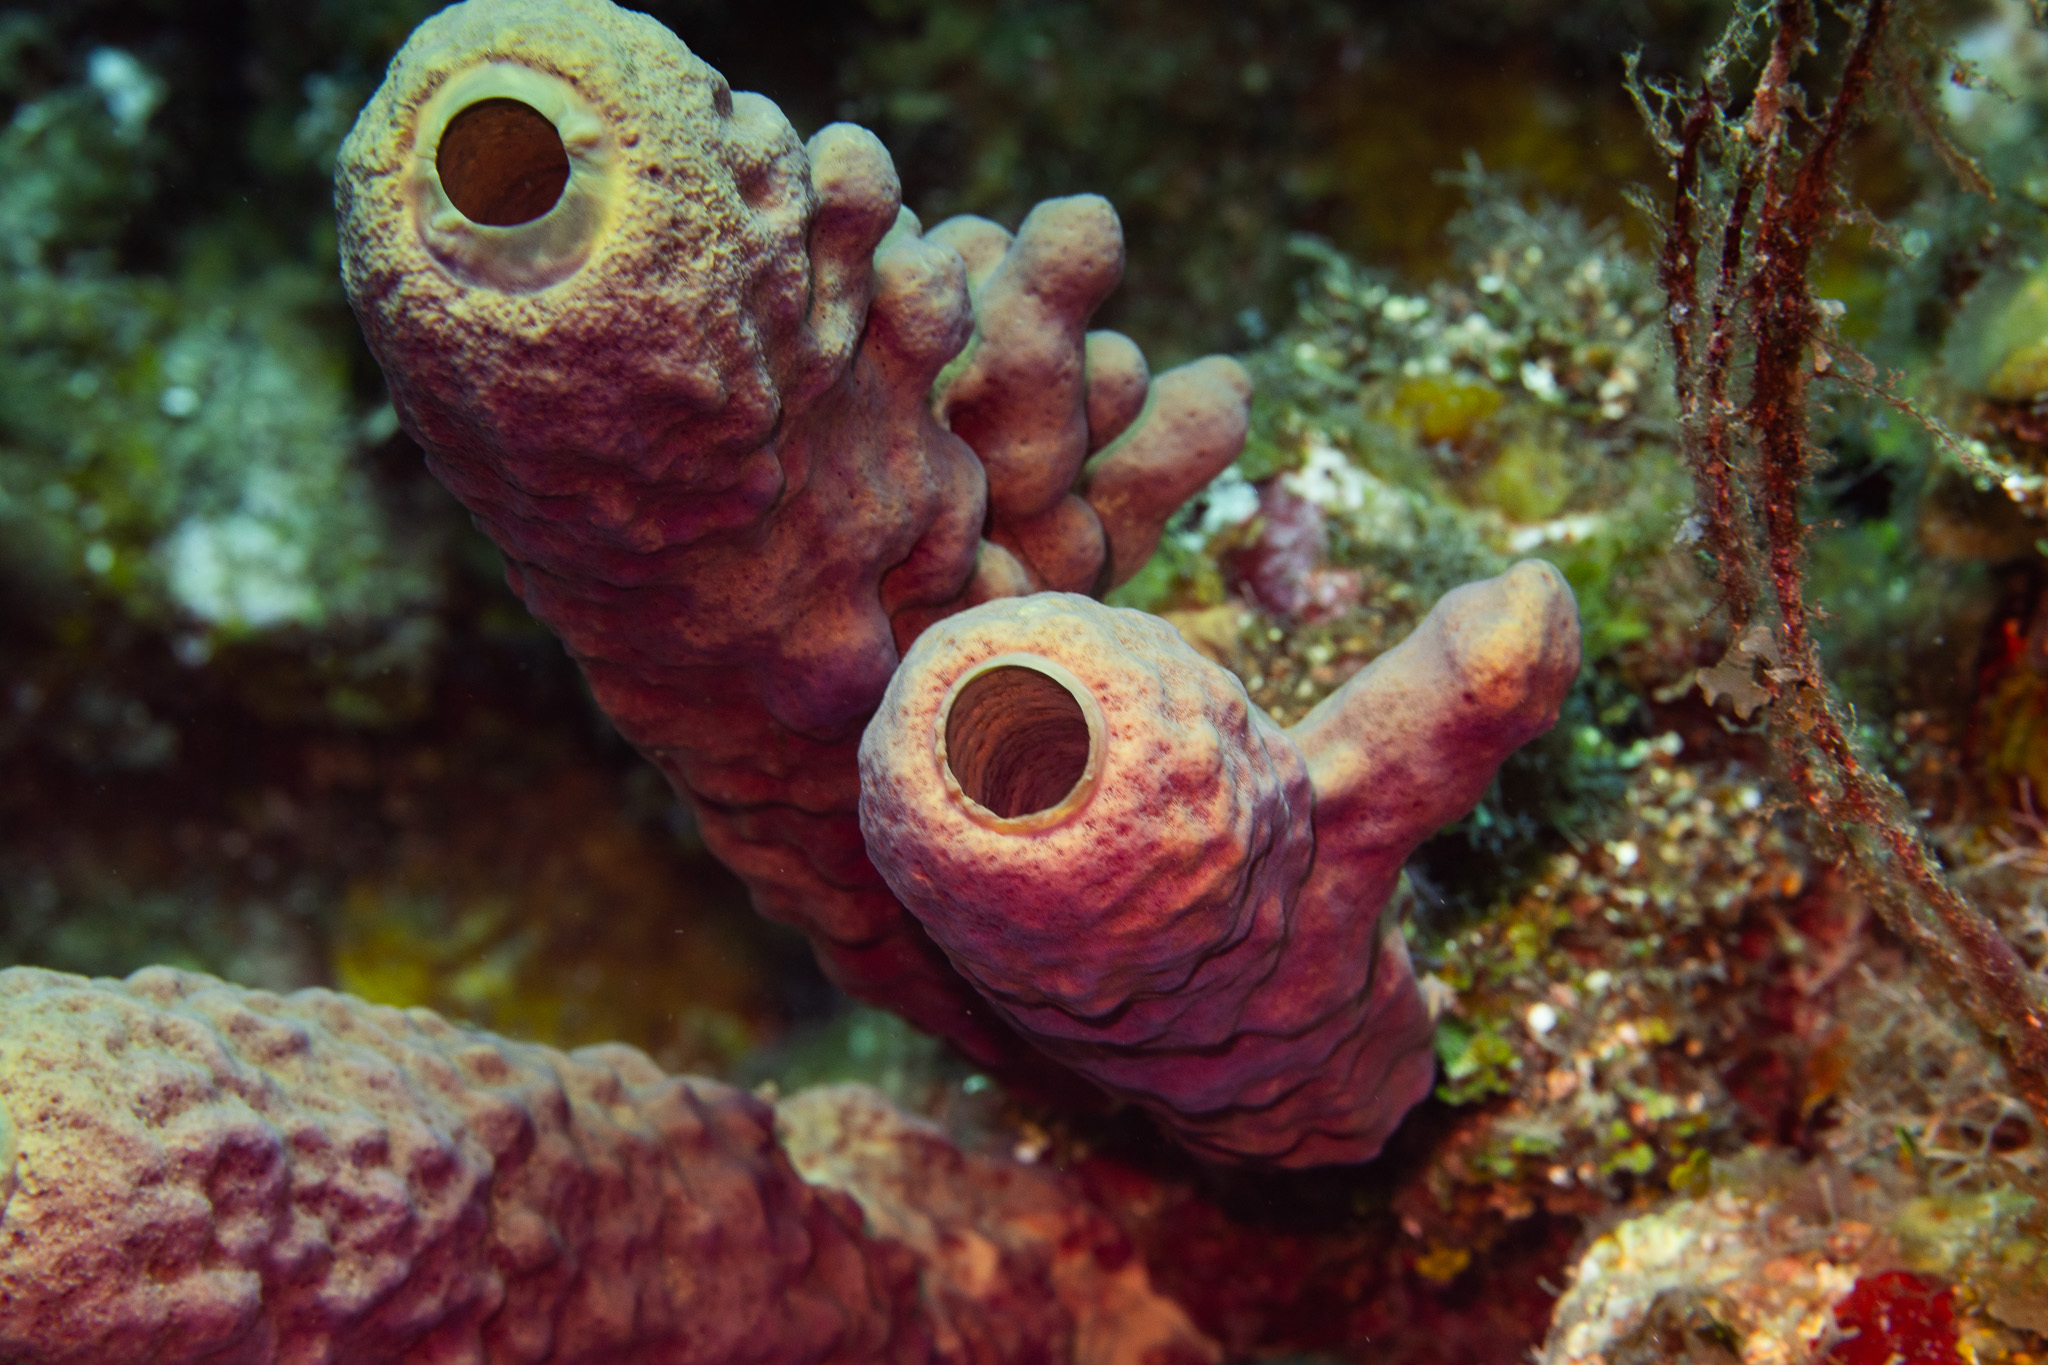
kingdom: Animalia
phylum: Porifera
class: Demospongiae
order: Verongiida
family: Aplysinidae
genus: Aplysina
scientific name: Aplysina archeri
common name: Stove-pipe sponge
